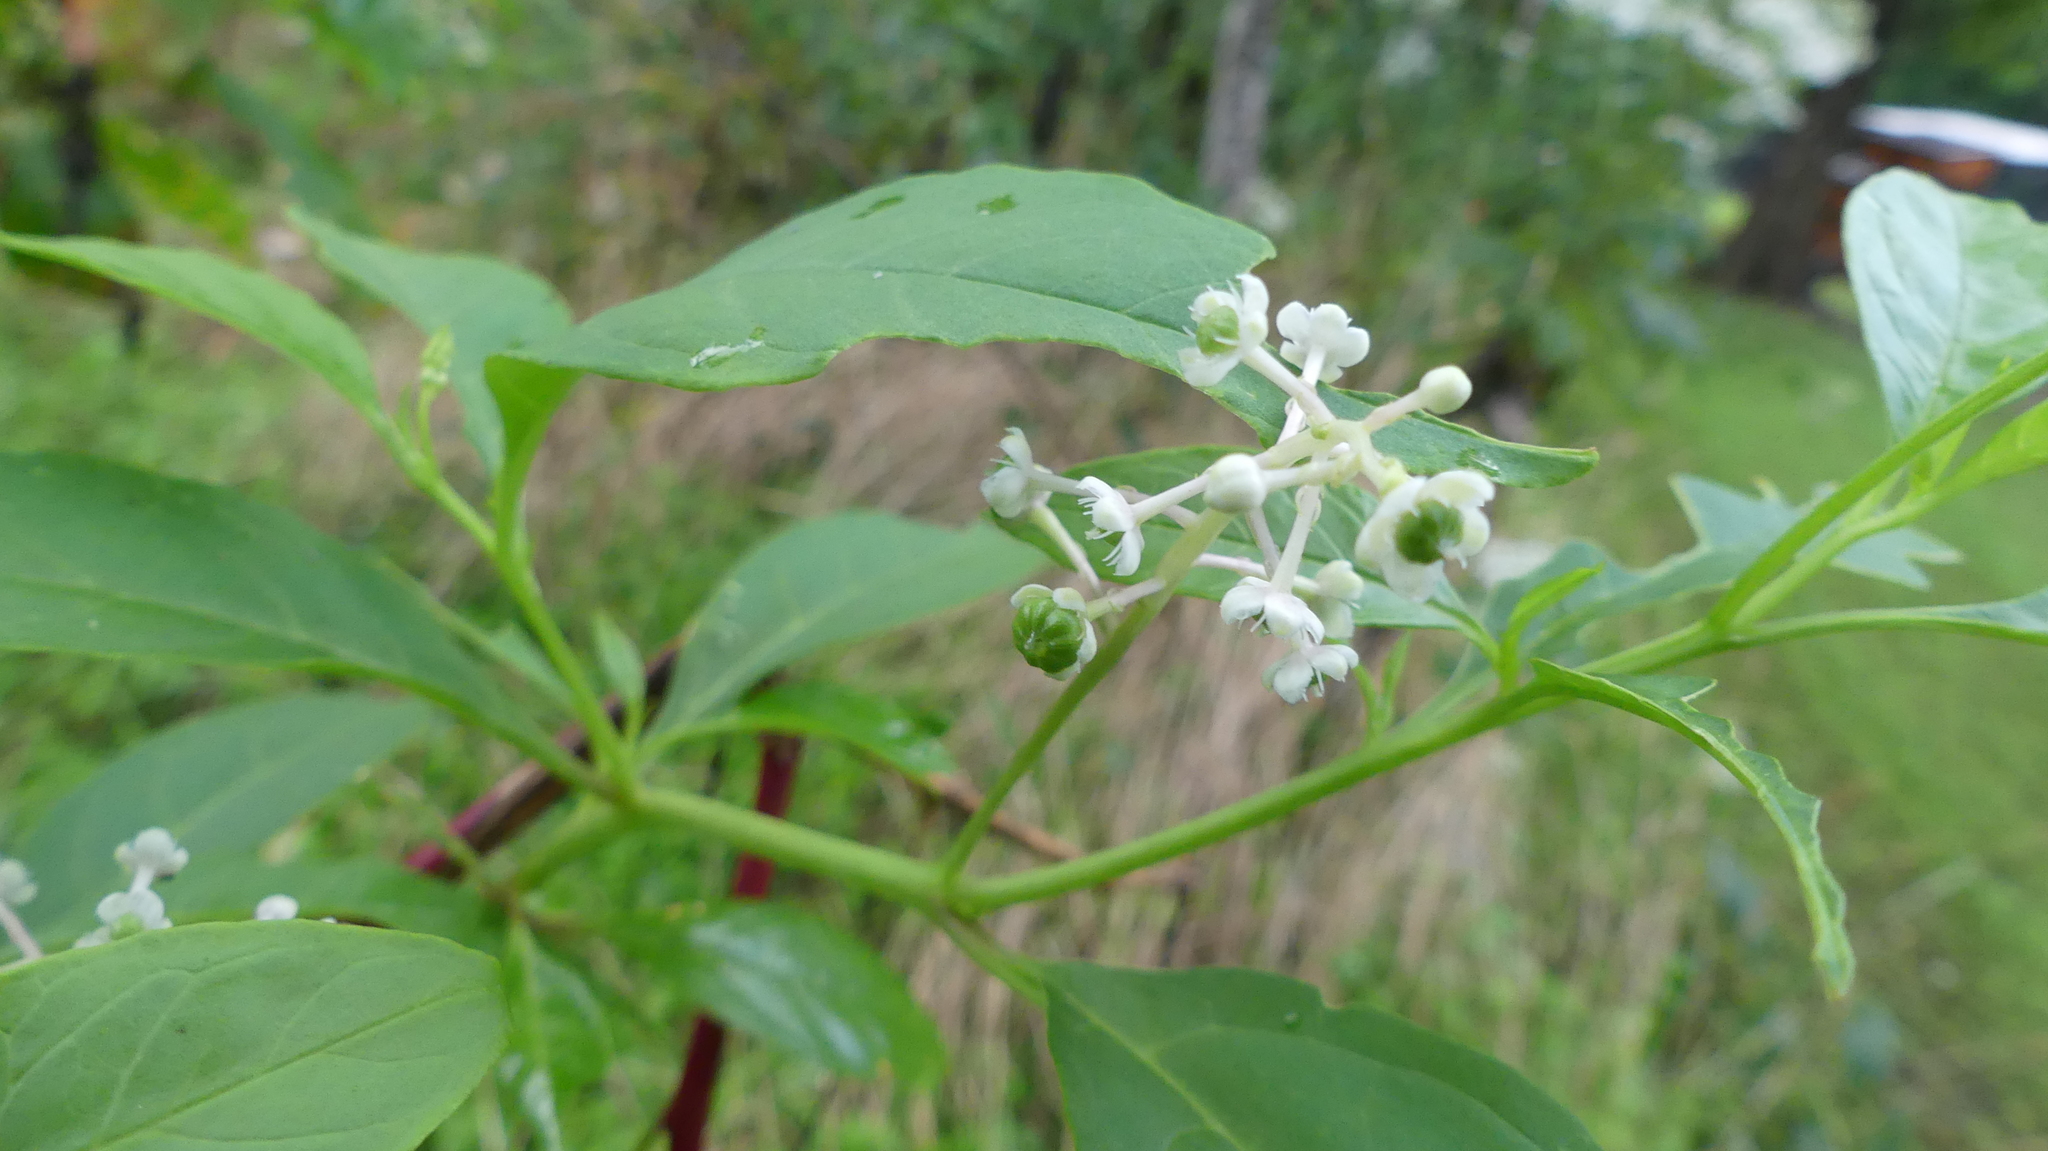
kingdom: Plantae
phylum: Tracheophyta
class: Magnoliopsida
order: Caryophyllales
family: Phytolaccaceae
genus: Phytolacca
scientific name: Phytolacca americana
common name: American pokeweed
